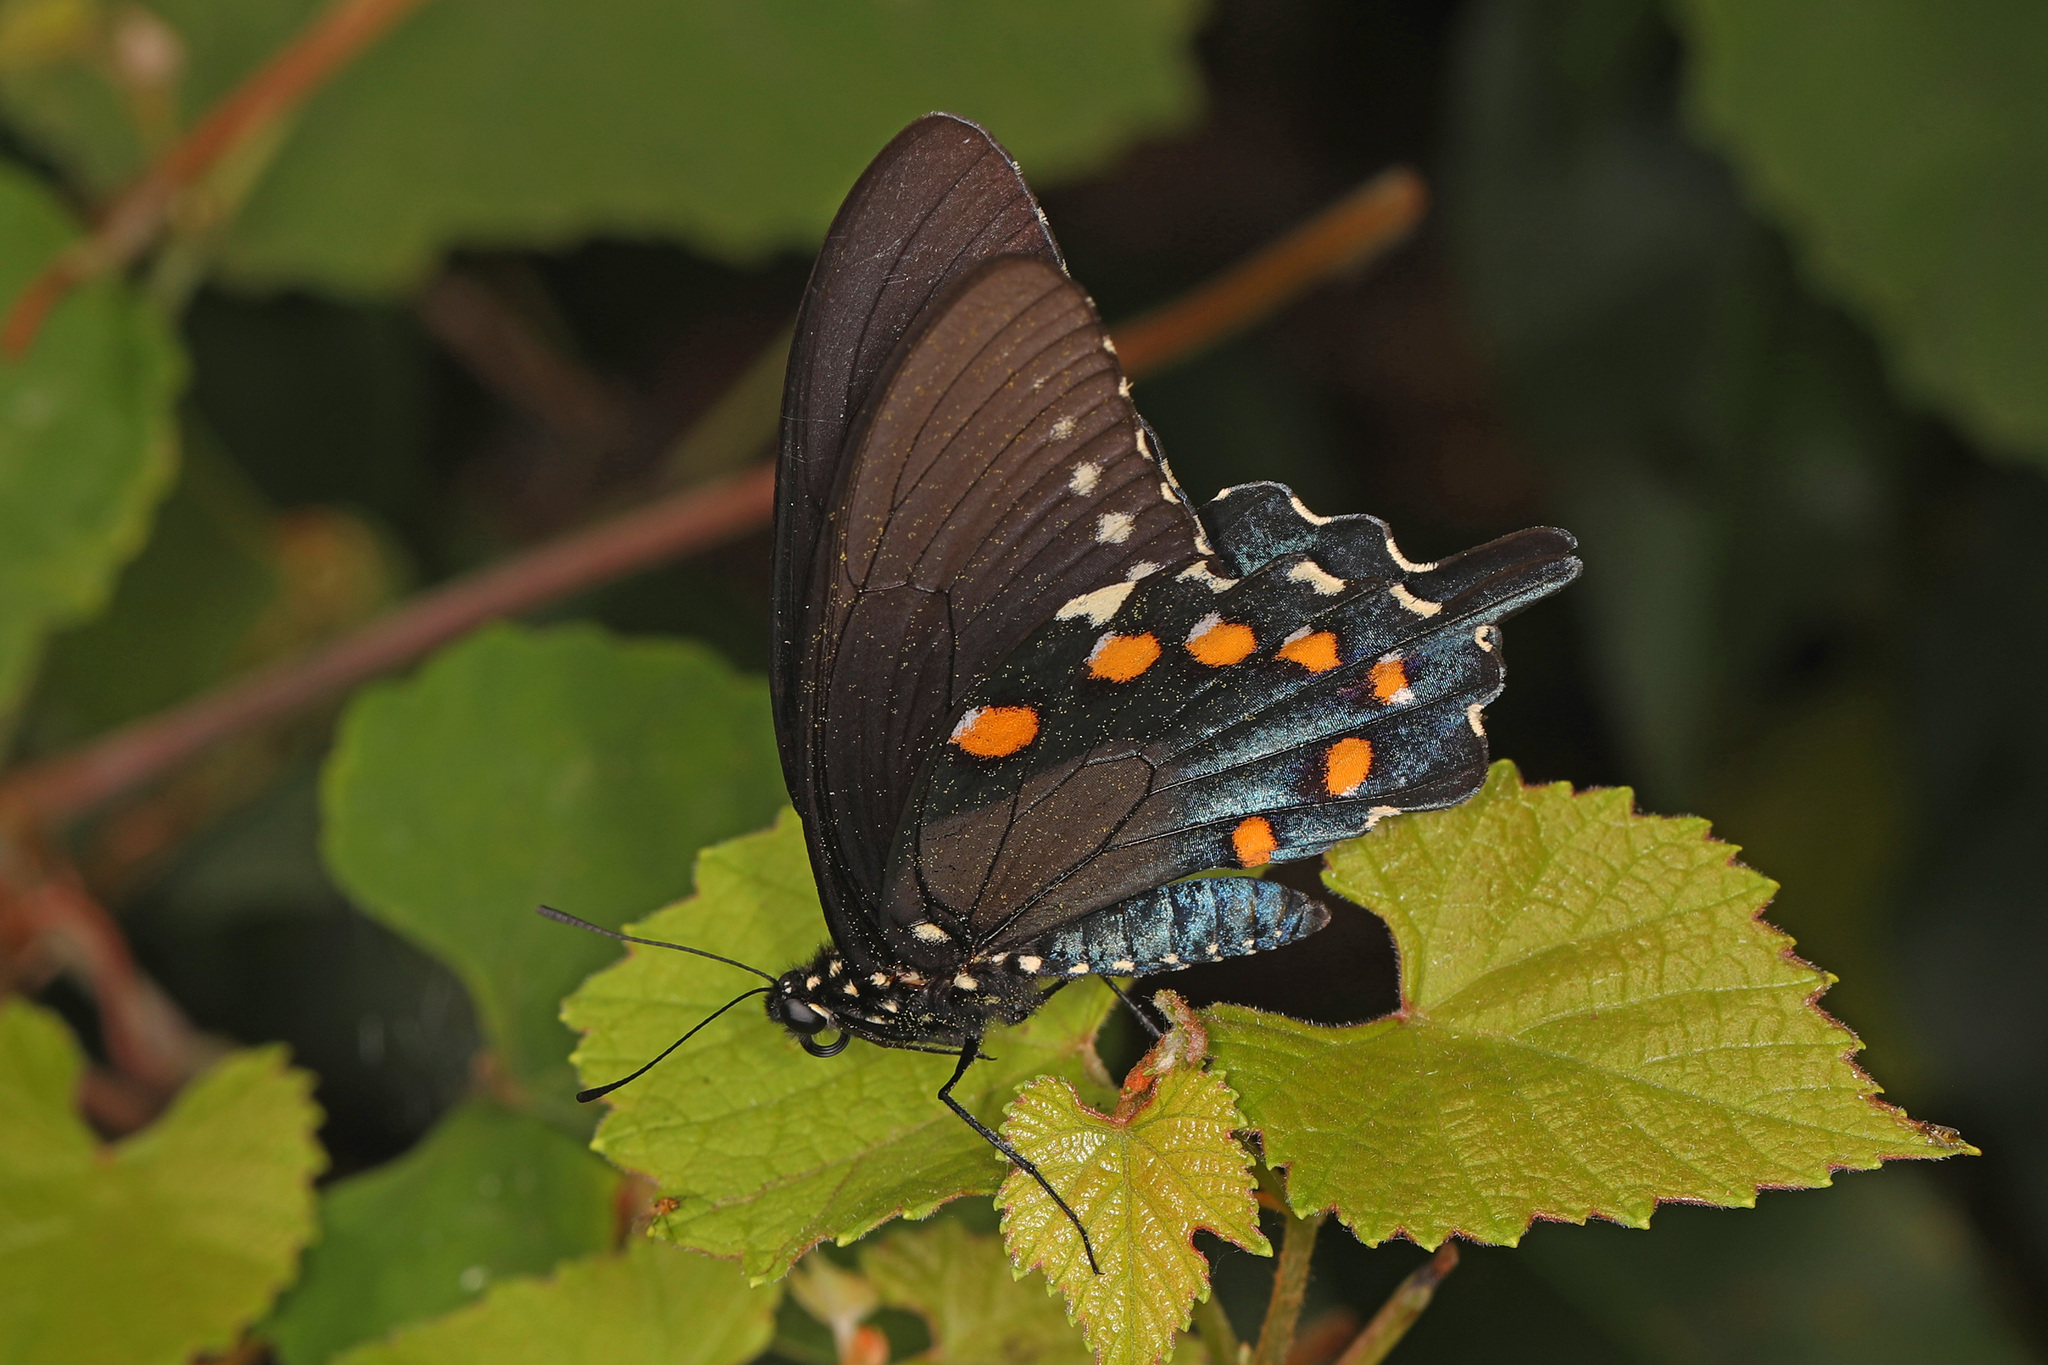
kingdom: Animalia
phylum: Arthropoda
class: Insecta
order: Lepidoptera
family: Papilionidae
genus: Battus
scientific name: Battus philenor
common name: Pipevine swallowtail
